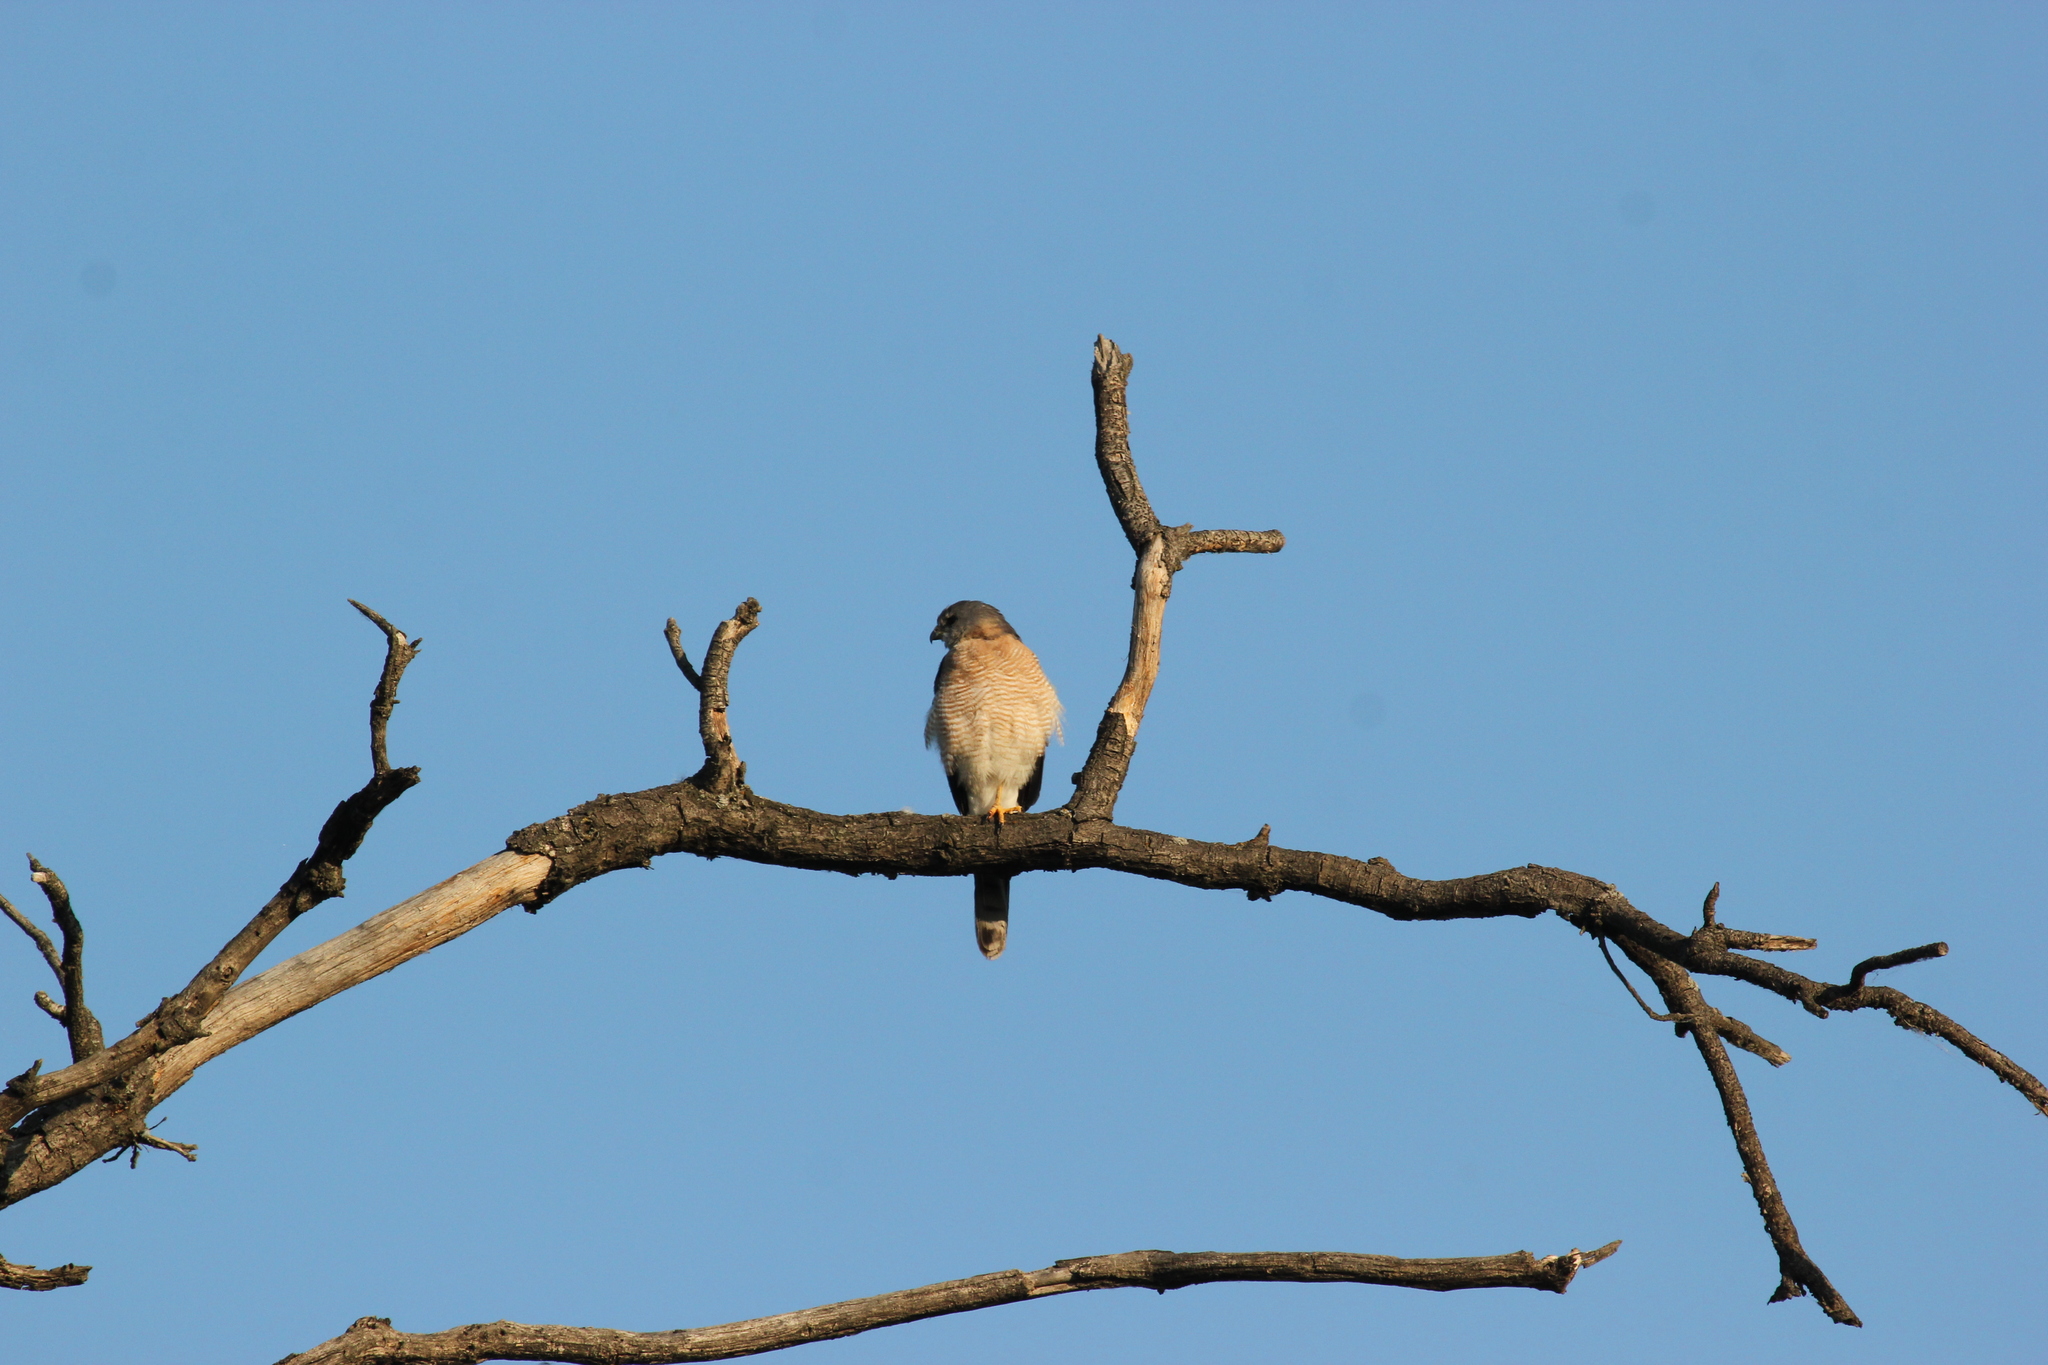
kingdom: Animalia
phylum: Chordata
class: Aves
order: Accipitriformes
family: Accipitridae
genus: Accipiter
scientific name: Accipiter brevipes
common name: Levant sparrowhawk
